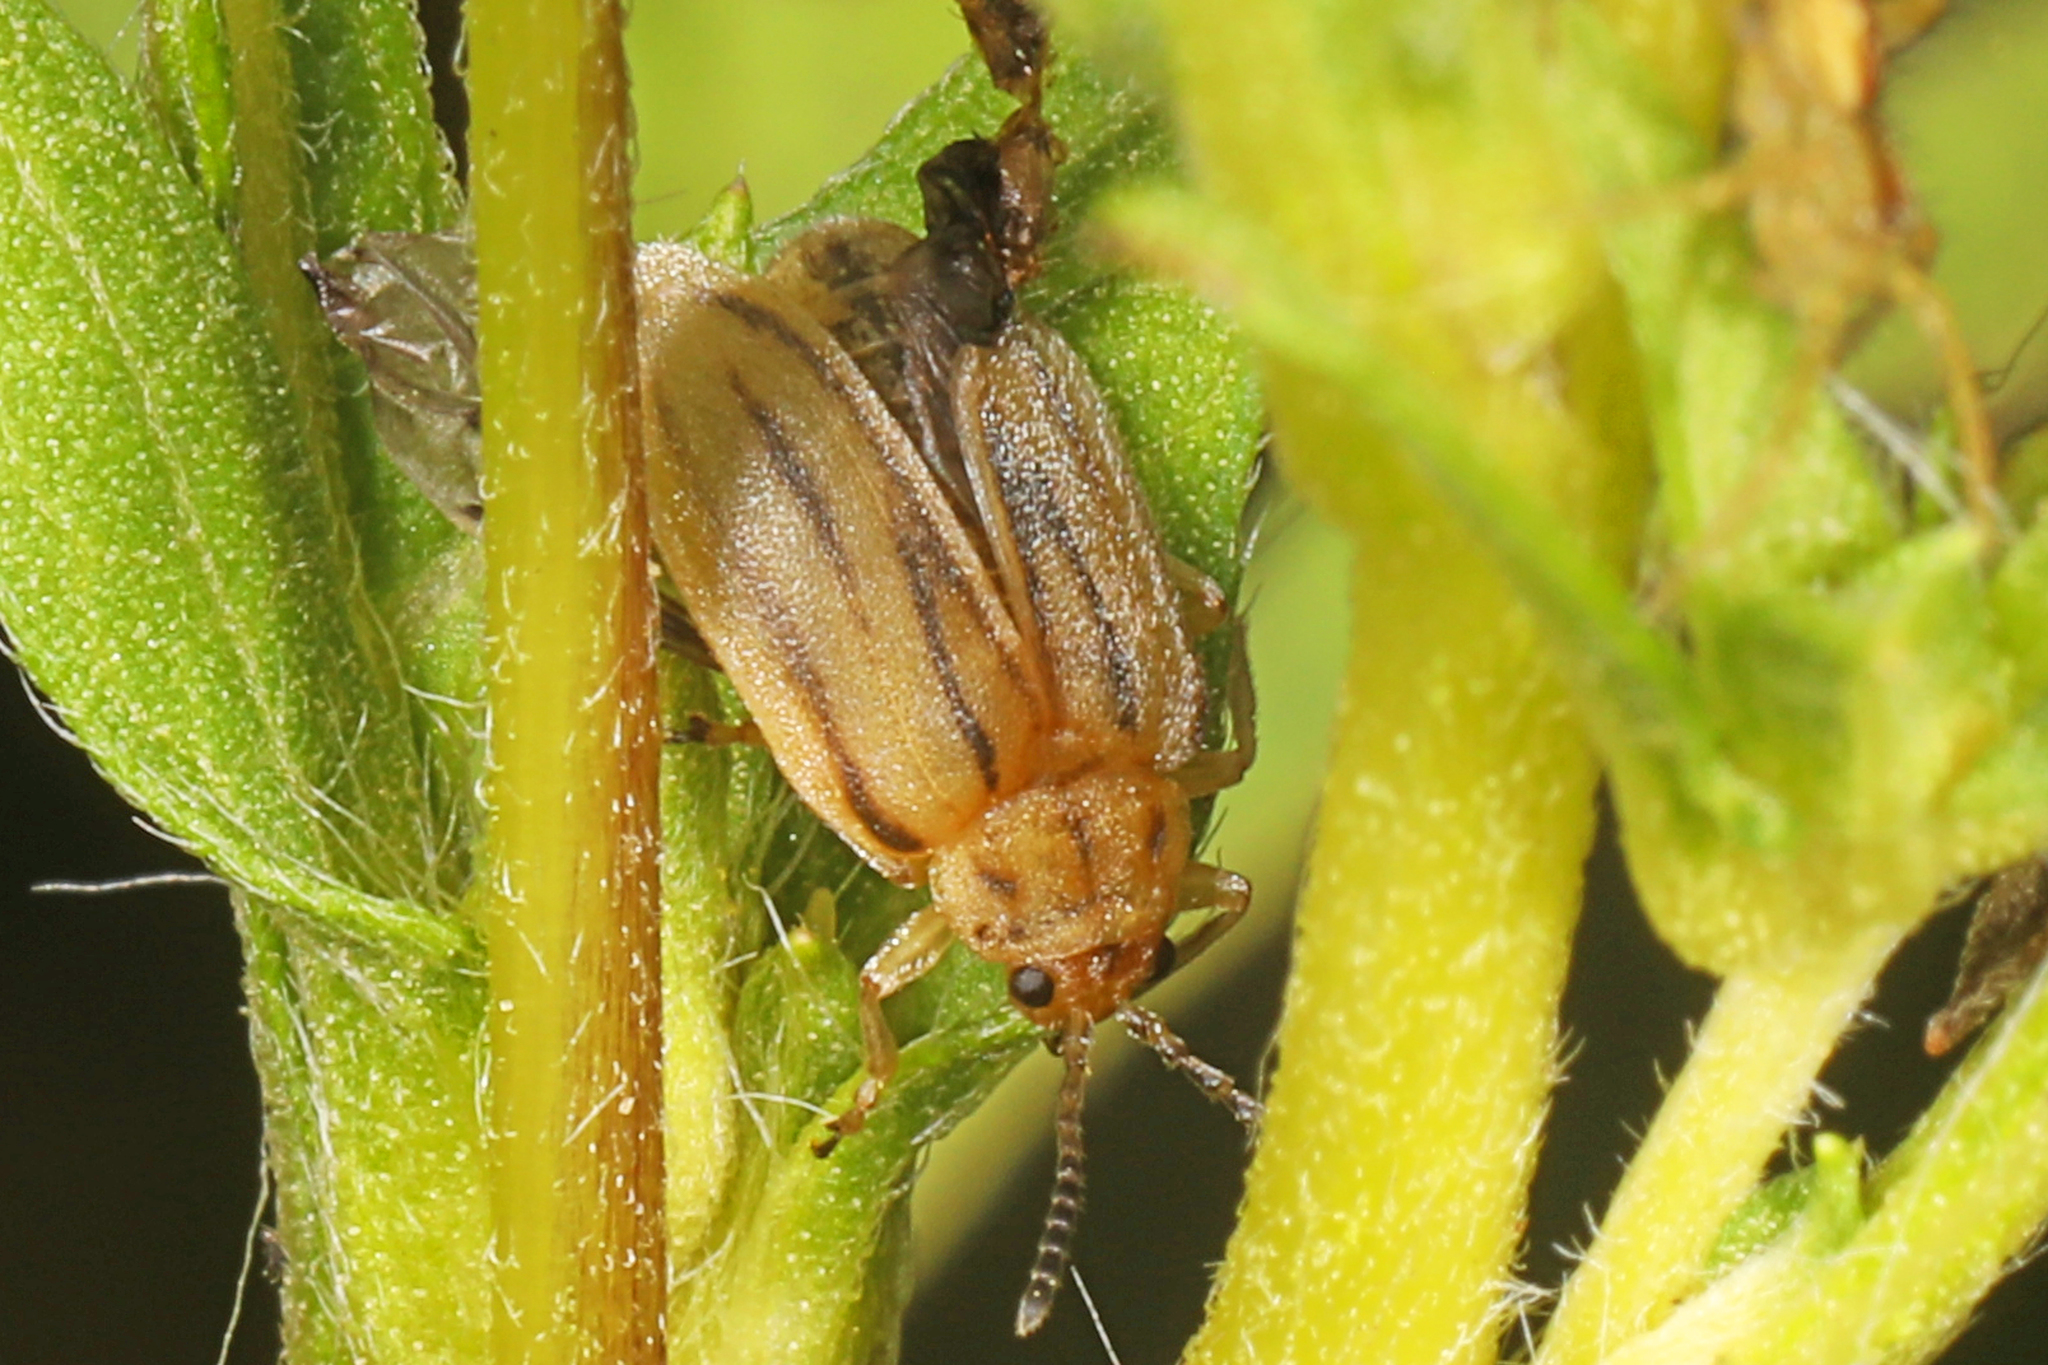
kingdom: Animalia
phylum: Arthropoda
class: Insecta
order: Coleoptera
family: Chrysomelidae
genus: Ophraella
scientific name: Ophraella communa
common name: Ragweed leaf beetle
